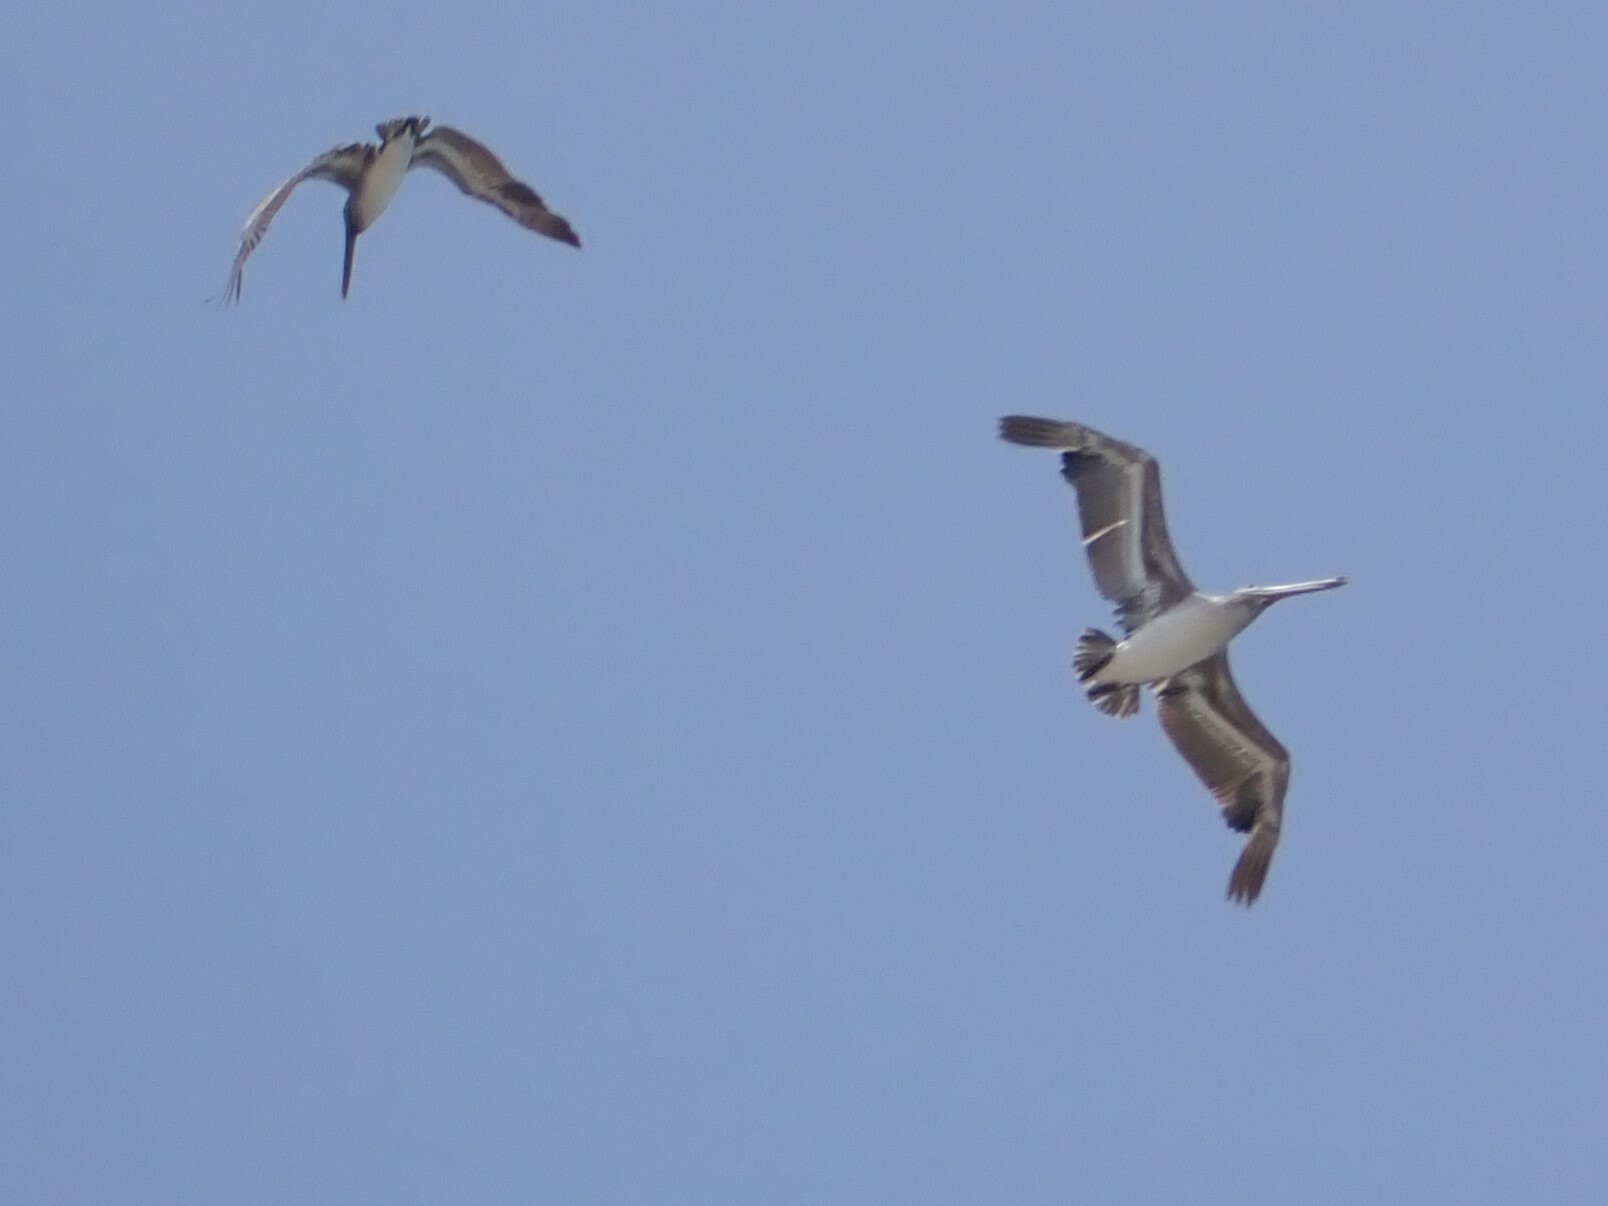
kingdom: Animalia
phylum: Chordata
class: Aves
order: Pelecaniformes
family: Pelecanidae
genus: Pelecanus
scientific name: Pelecanus occidentalis
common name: Brown pelican
